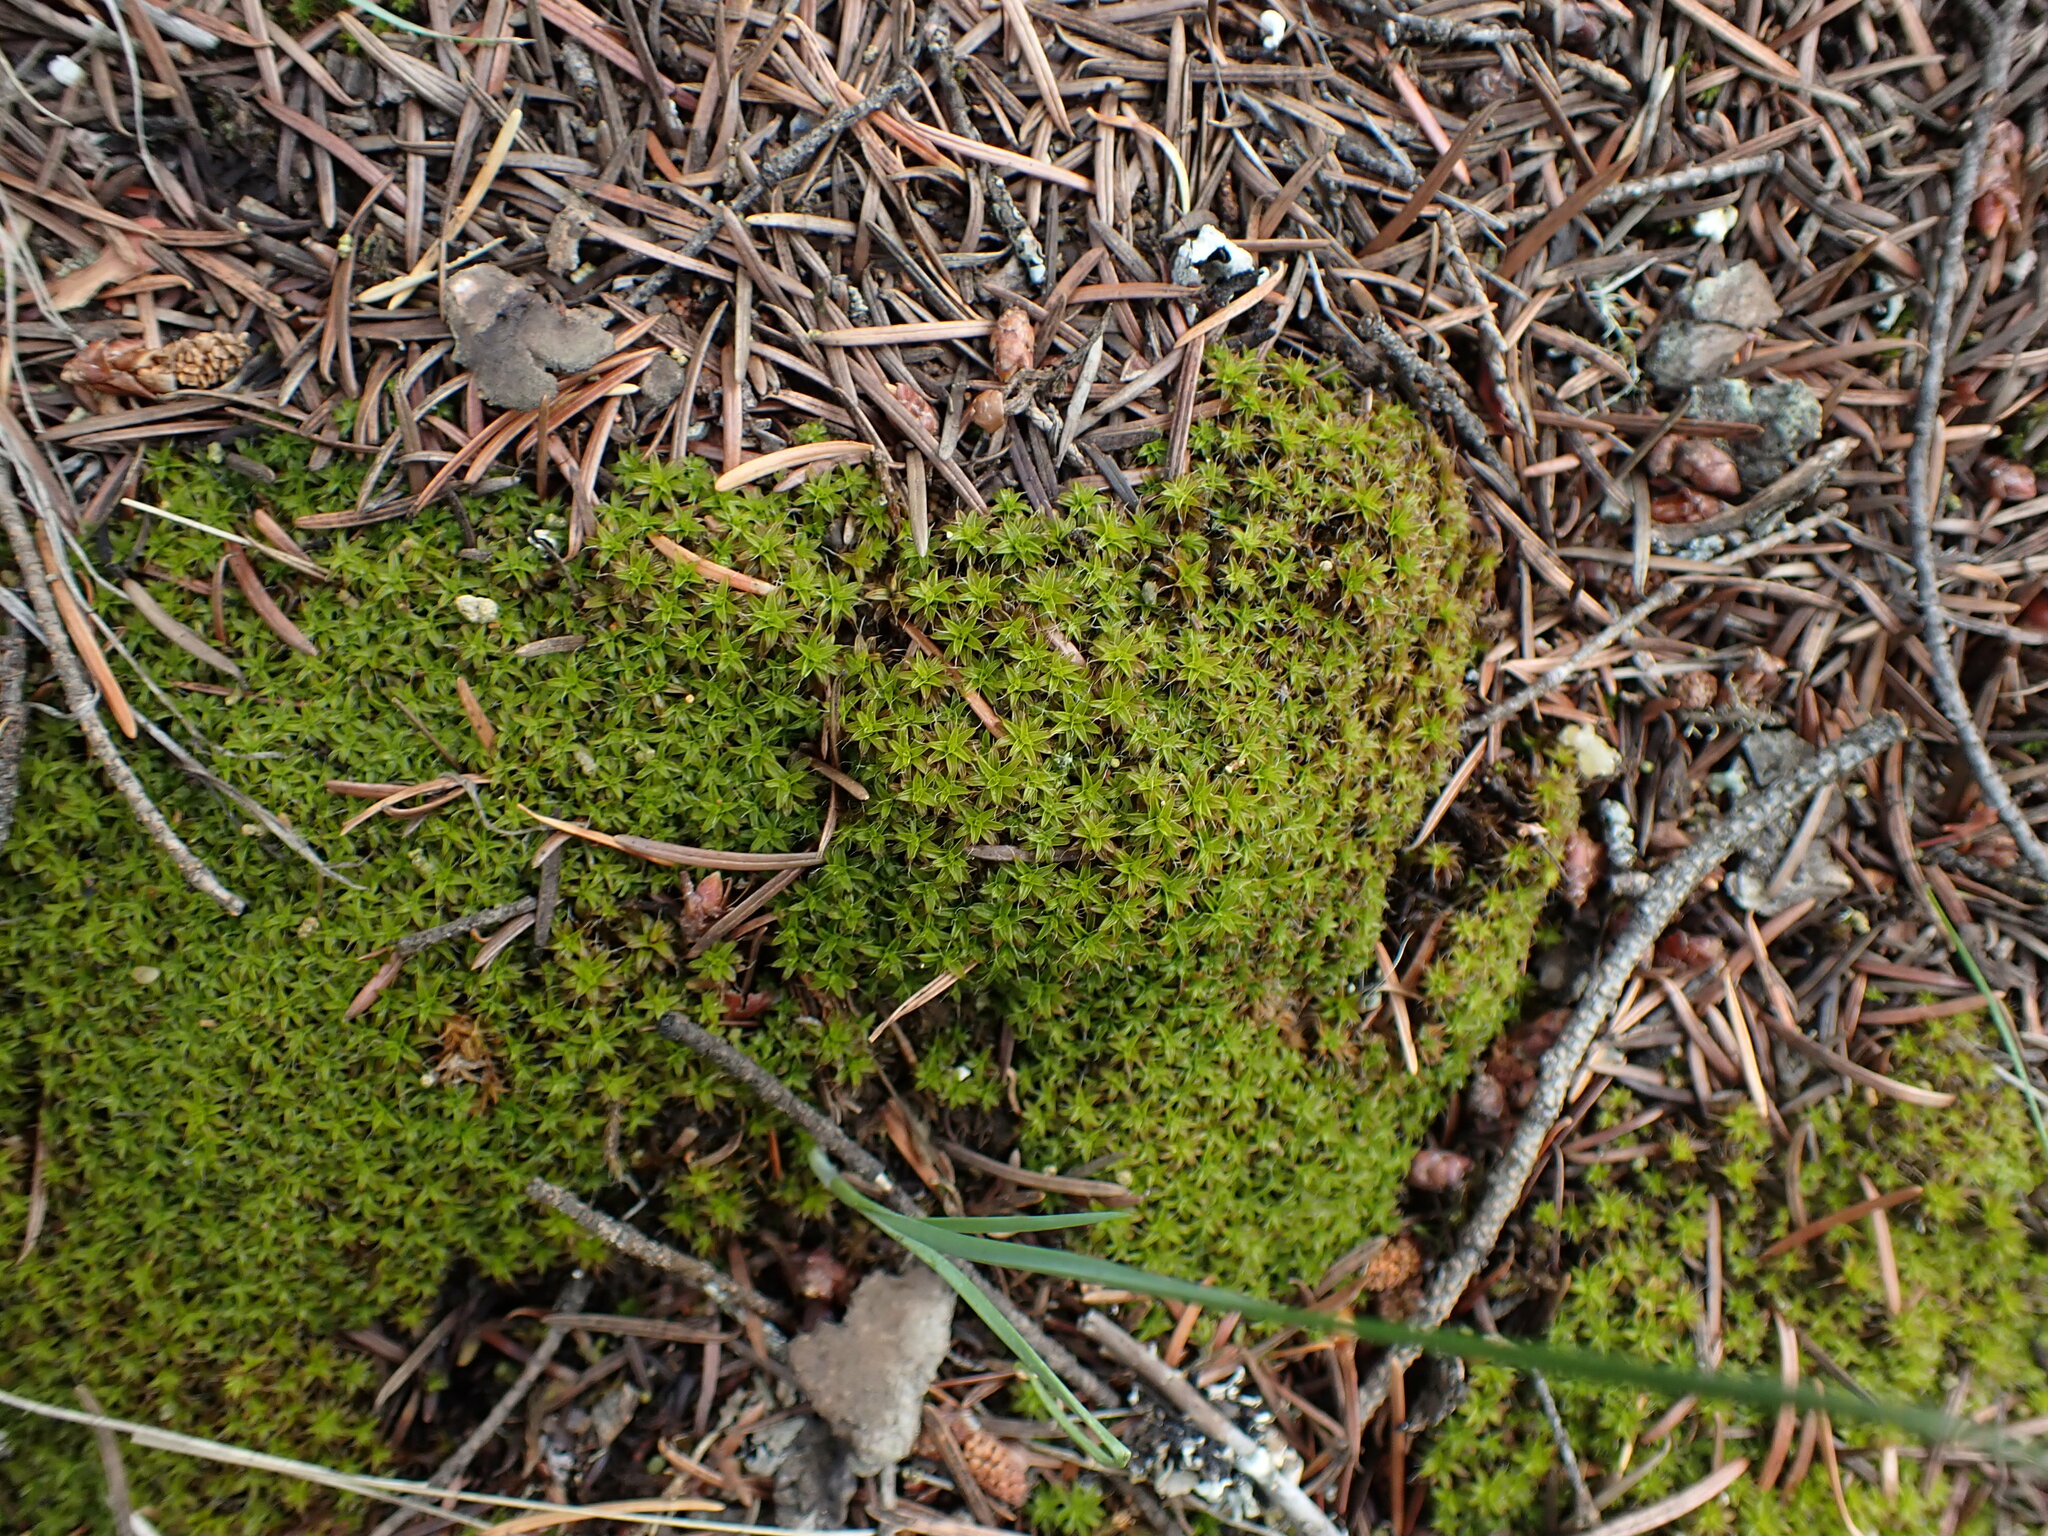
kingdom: Plantae
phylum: Bryophyta
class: Bryopsida
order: Pottiales
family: Pottiaceae
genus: Syntrichia
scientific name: Syntrichia ruralis
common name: Sidewalk screw moss
